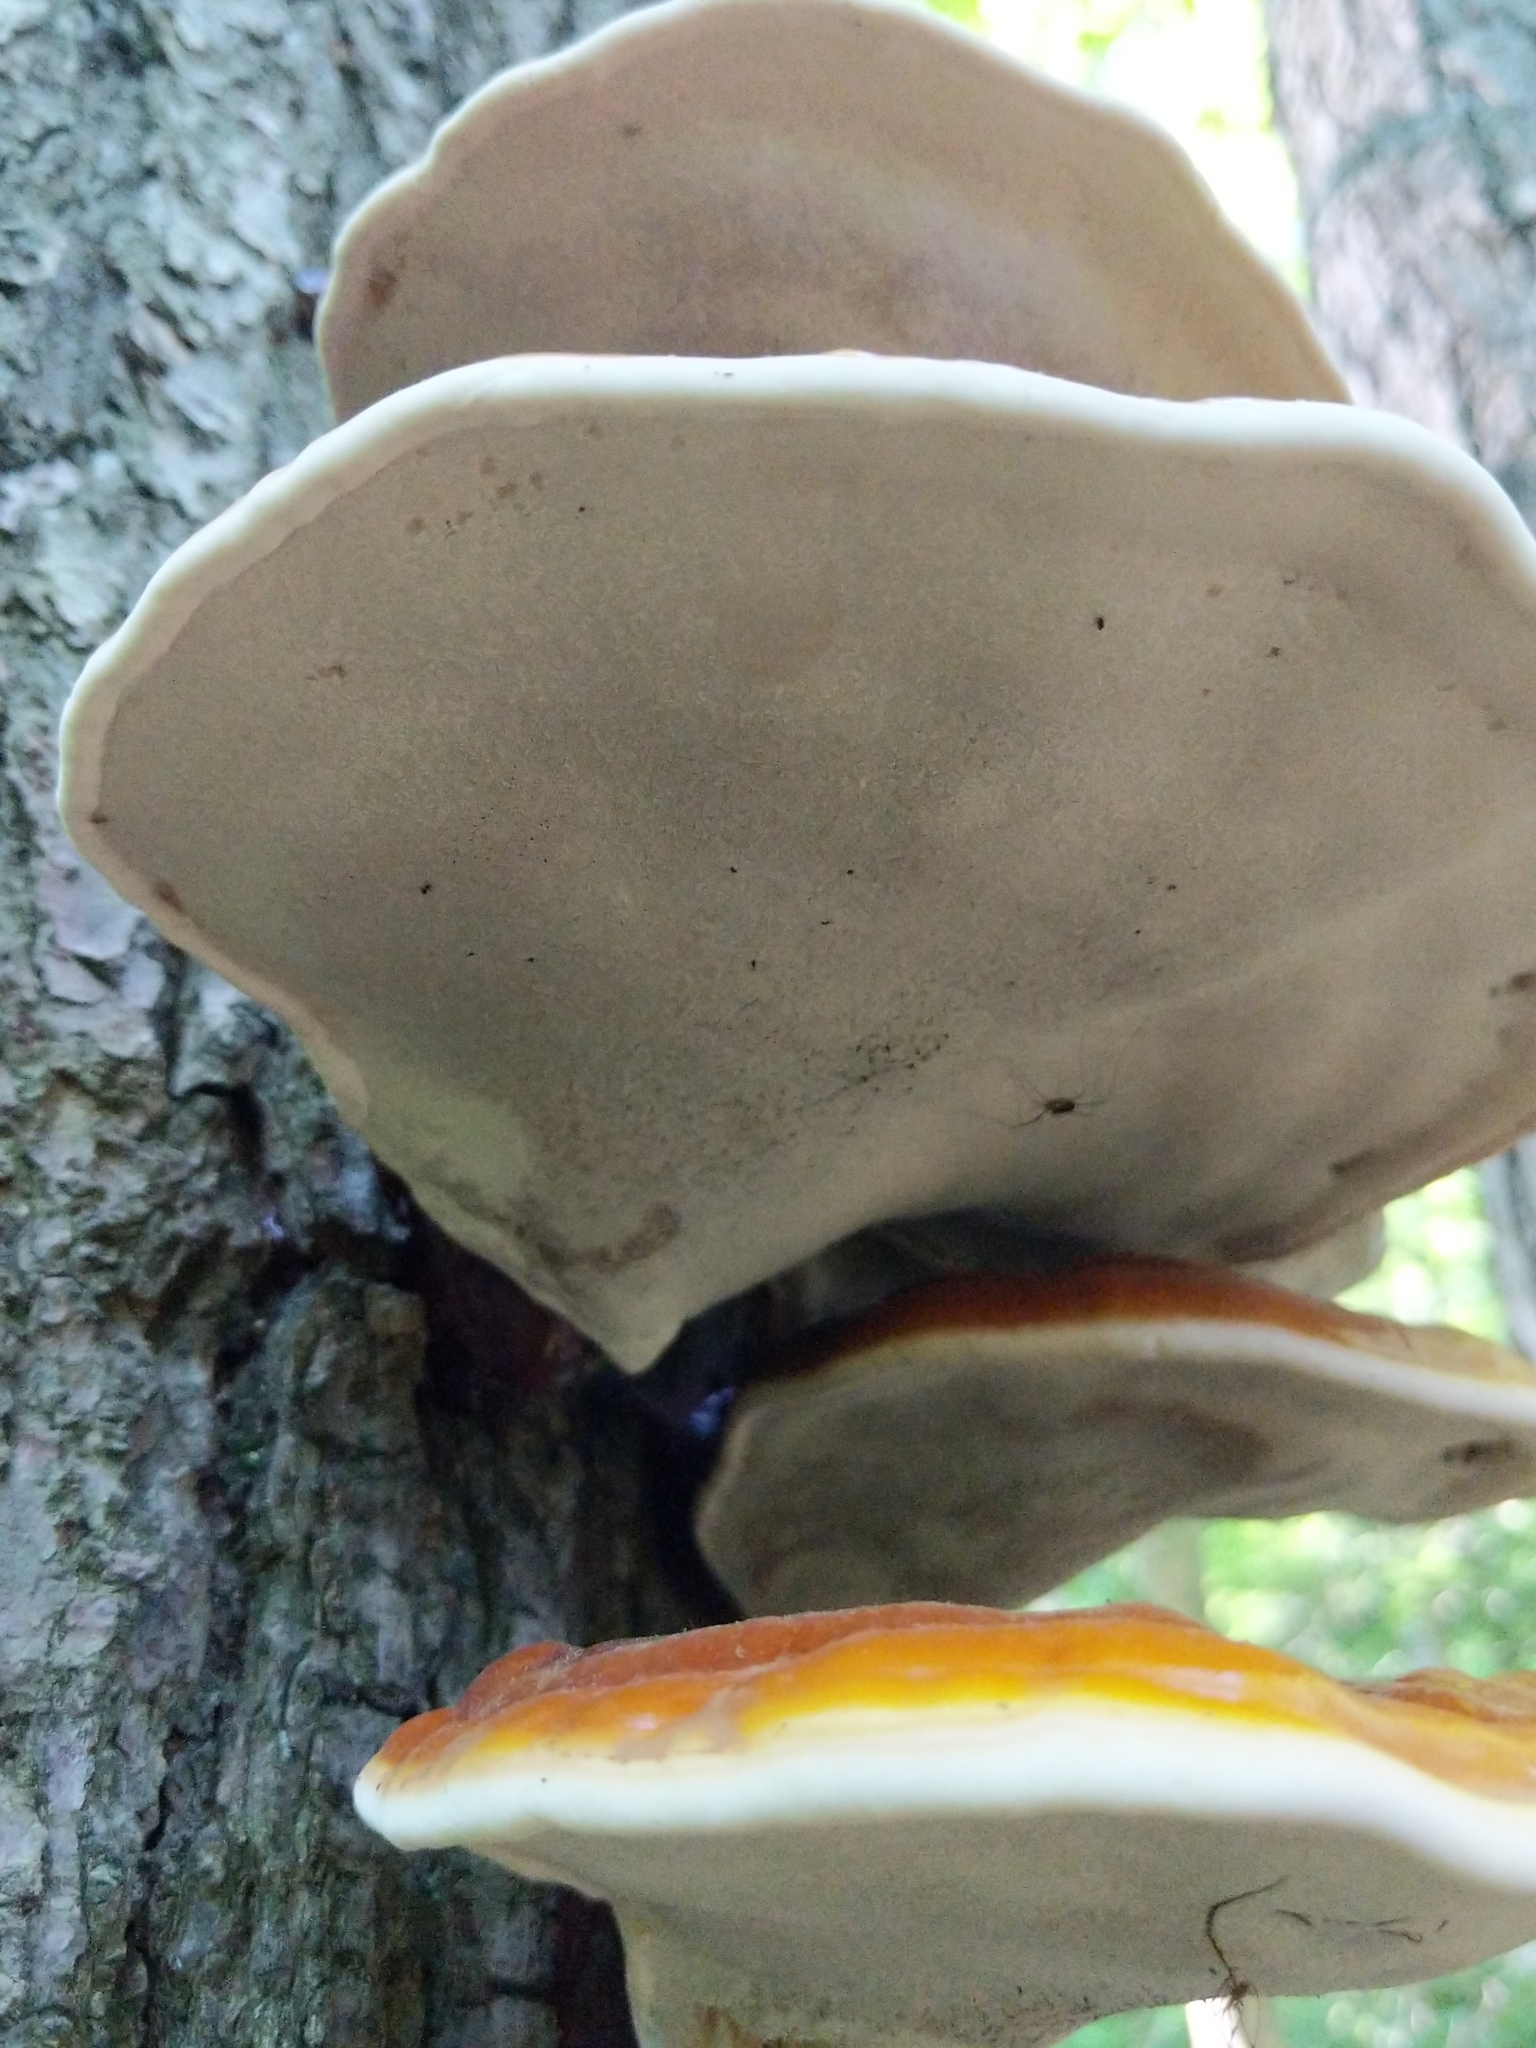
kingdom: Fungi
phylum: Basidiomycota
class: Agaricomycetes
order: Polyporales
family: Polyporaceae
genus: Ganoderma
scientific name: Ganoderma tsugae
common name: Hemlock varnish shelf
